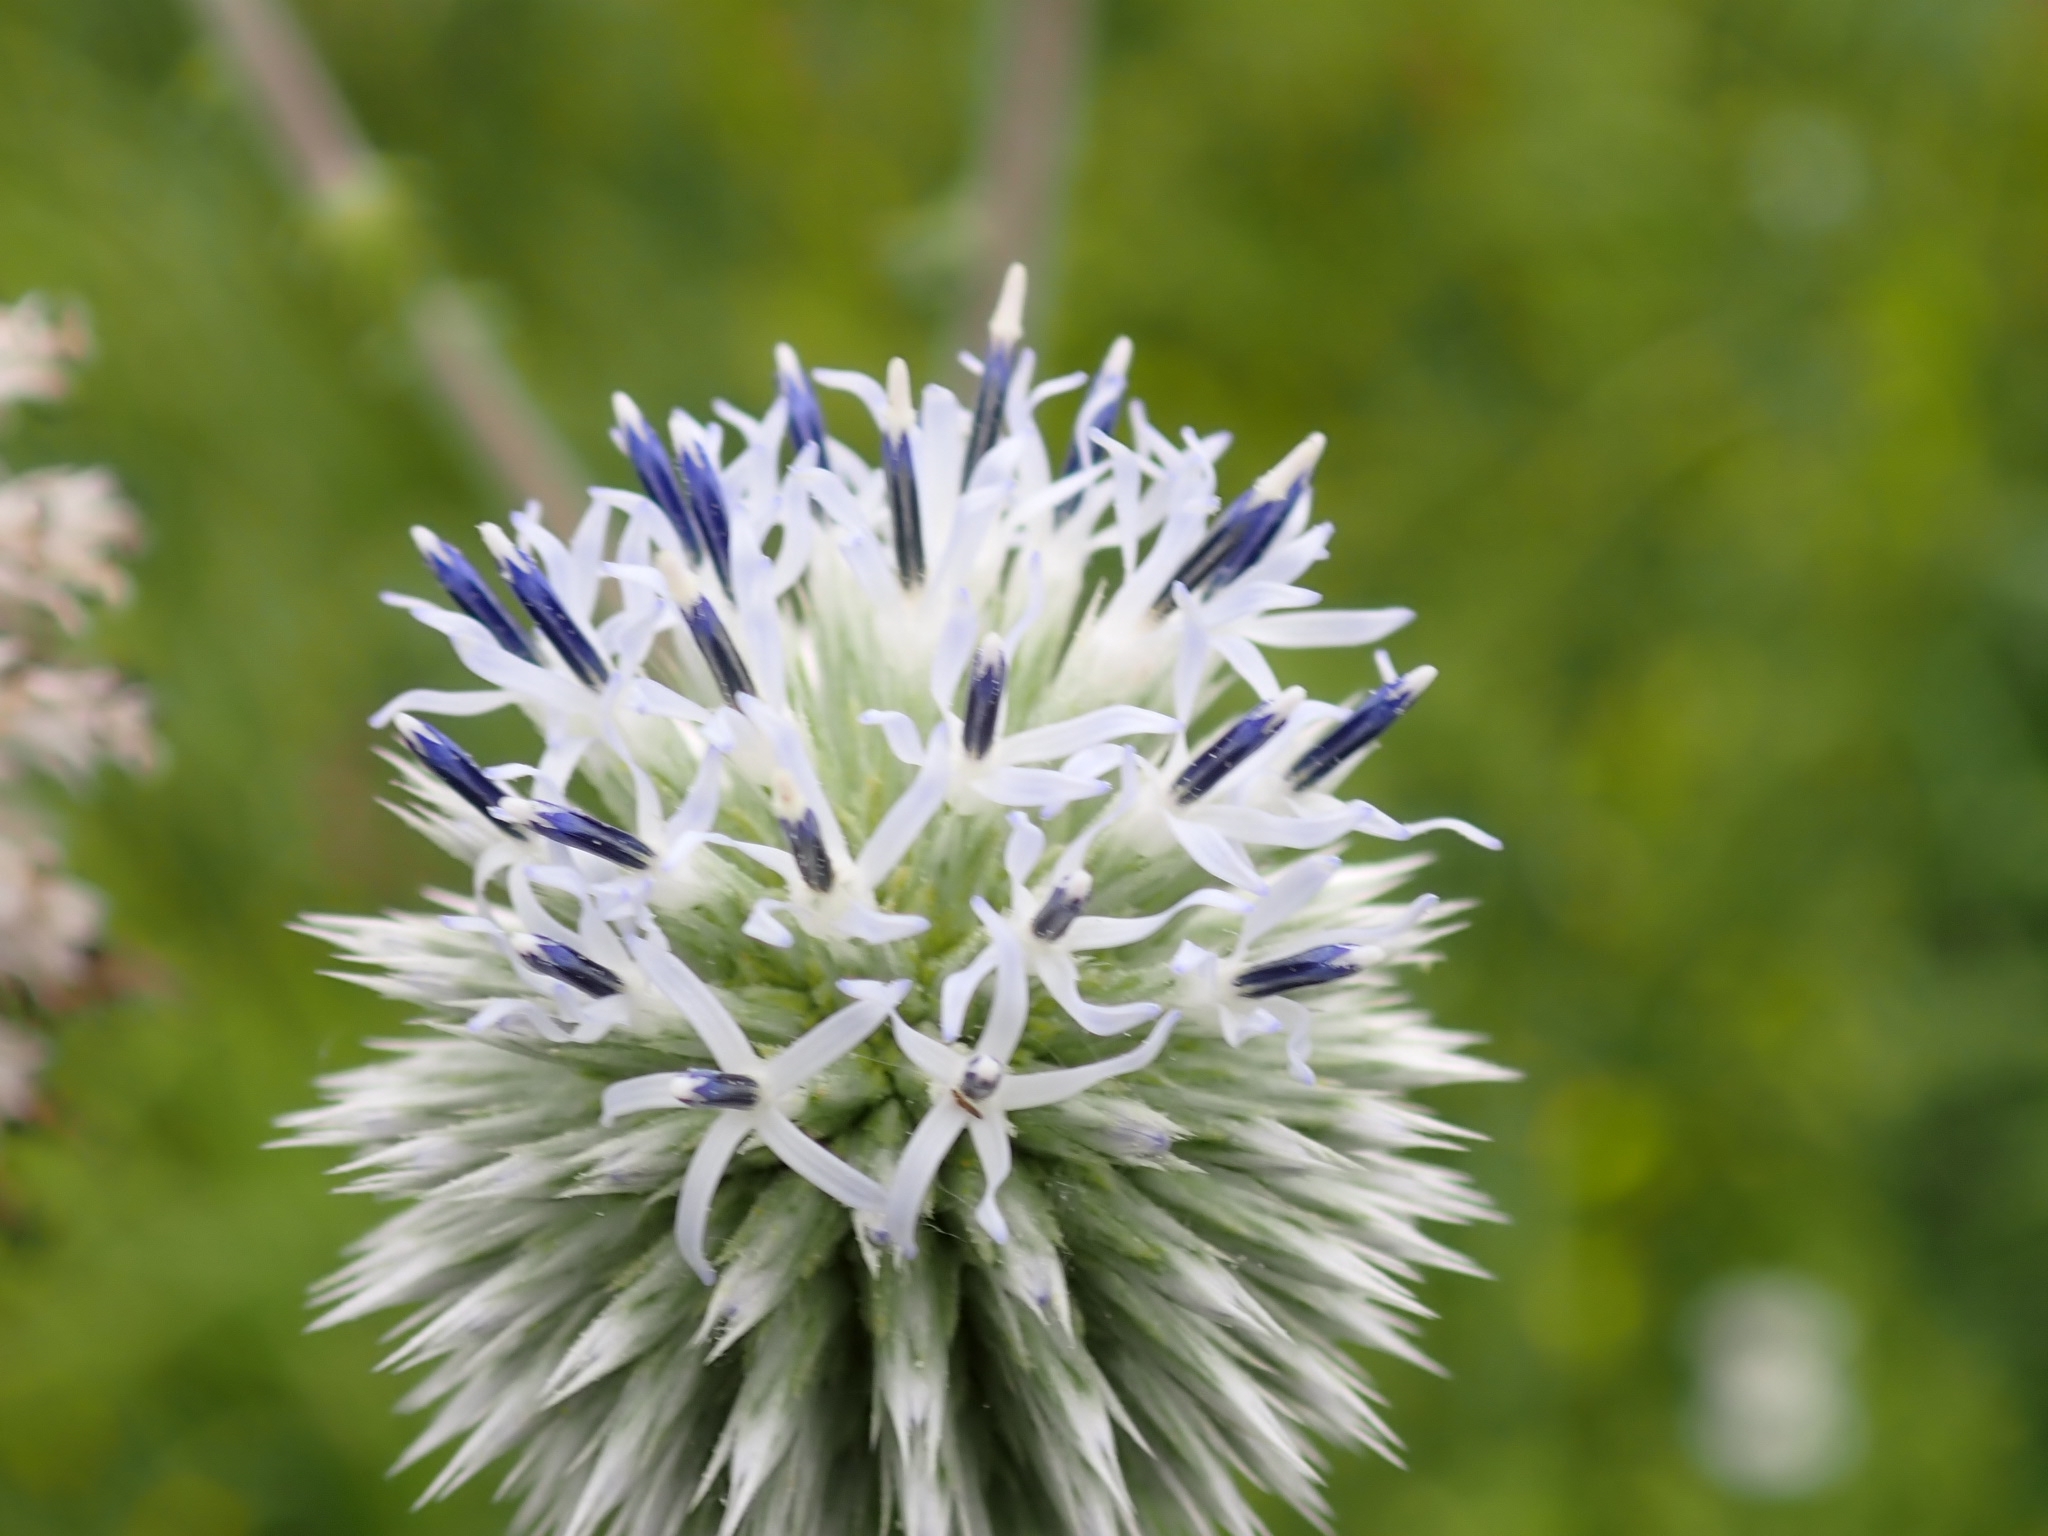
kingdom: Plantae
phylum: Tracheophyta
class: Magnoliopsida
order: Asterales
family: Asteraceae
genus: Echinops
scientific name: Echinops sphaerocephalus
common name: Glandular globe-thistle
